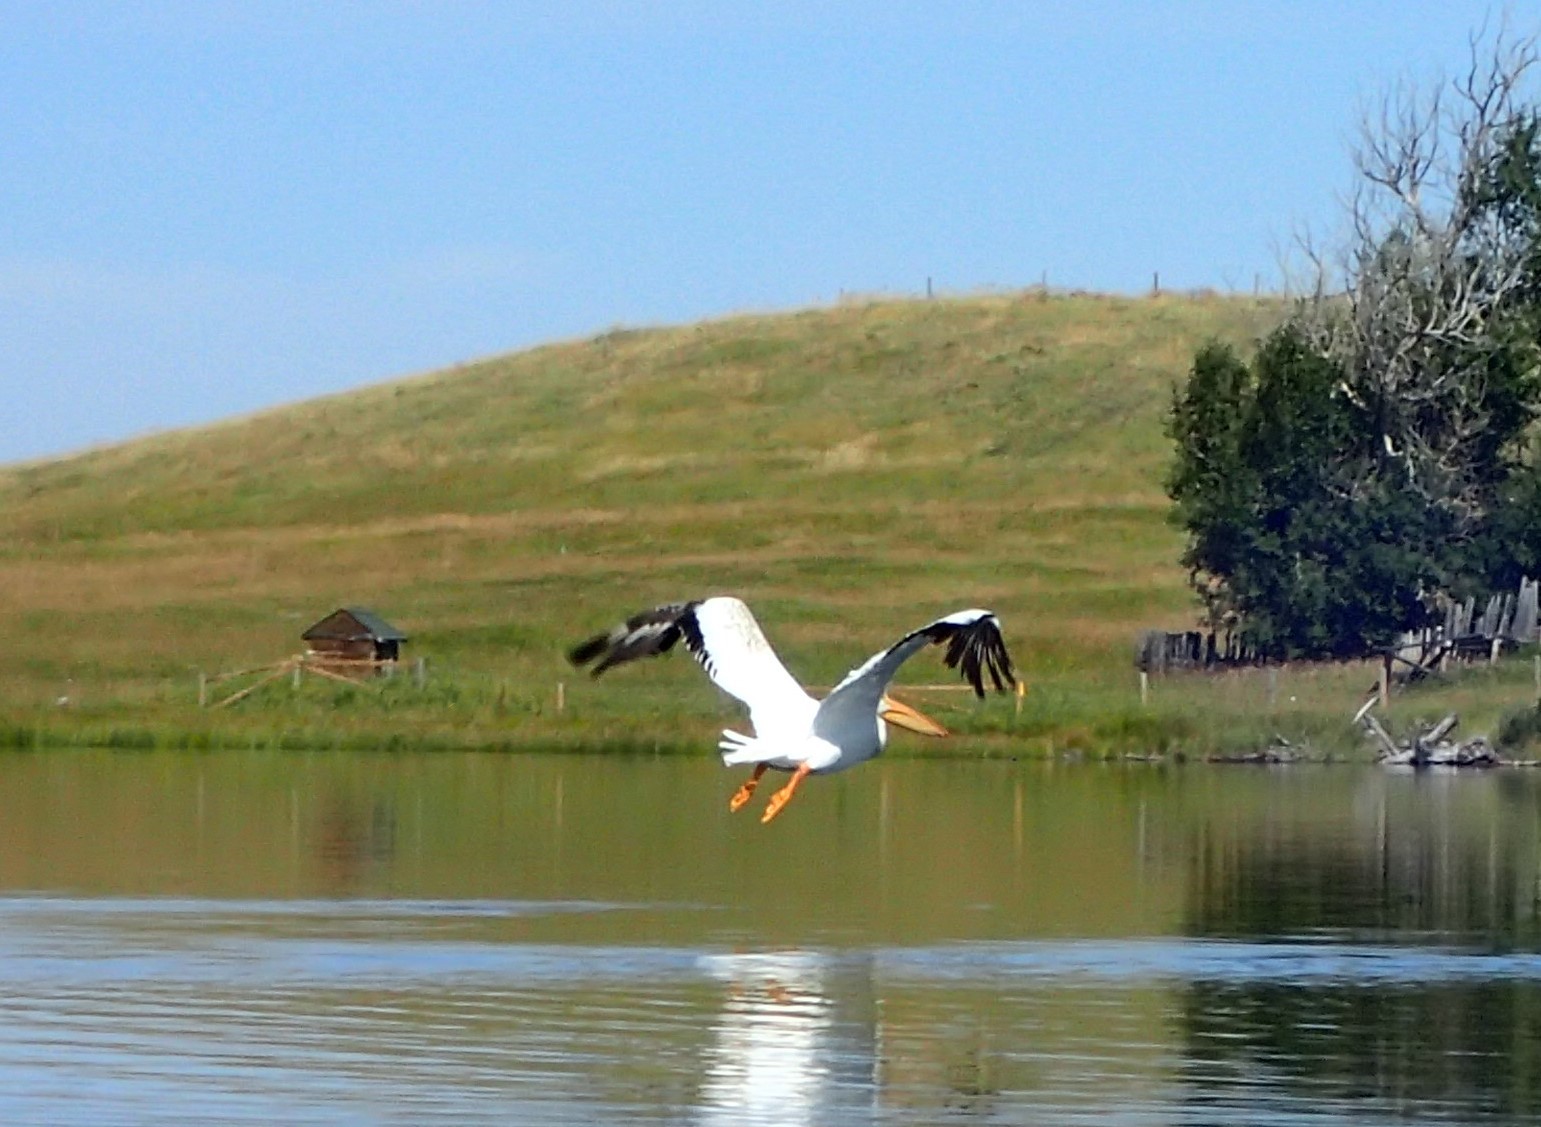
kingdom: Animalia
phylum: Chordata
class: Aves
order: Pelecaniformes
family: Pelecanidae
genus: Pelecanus
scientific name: Pelecanus erythrorhynchos
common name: American white pelican
